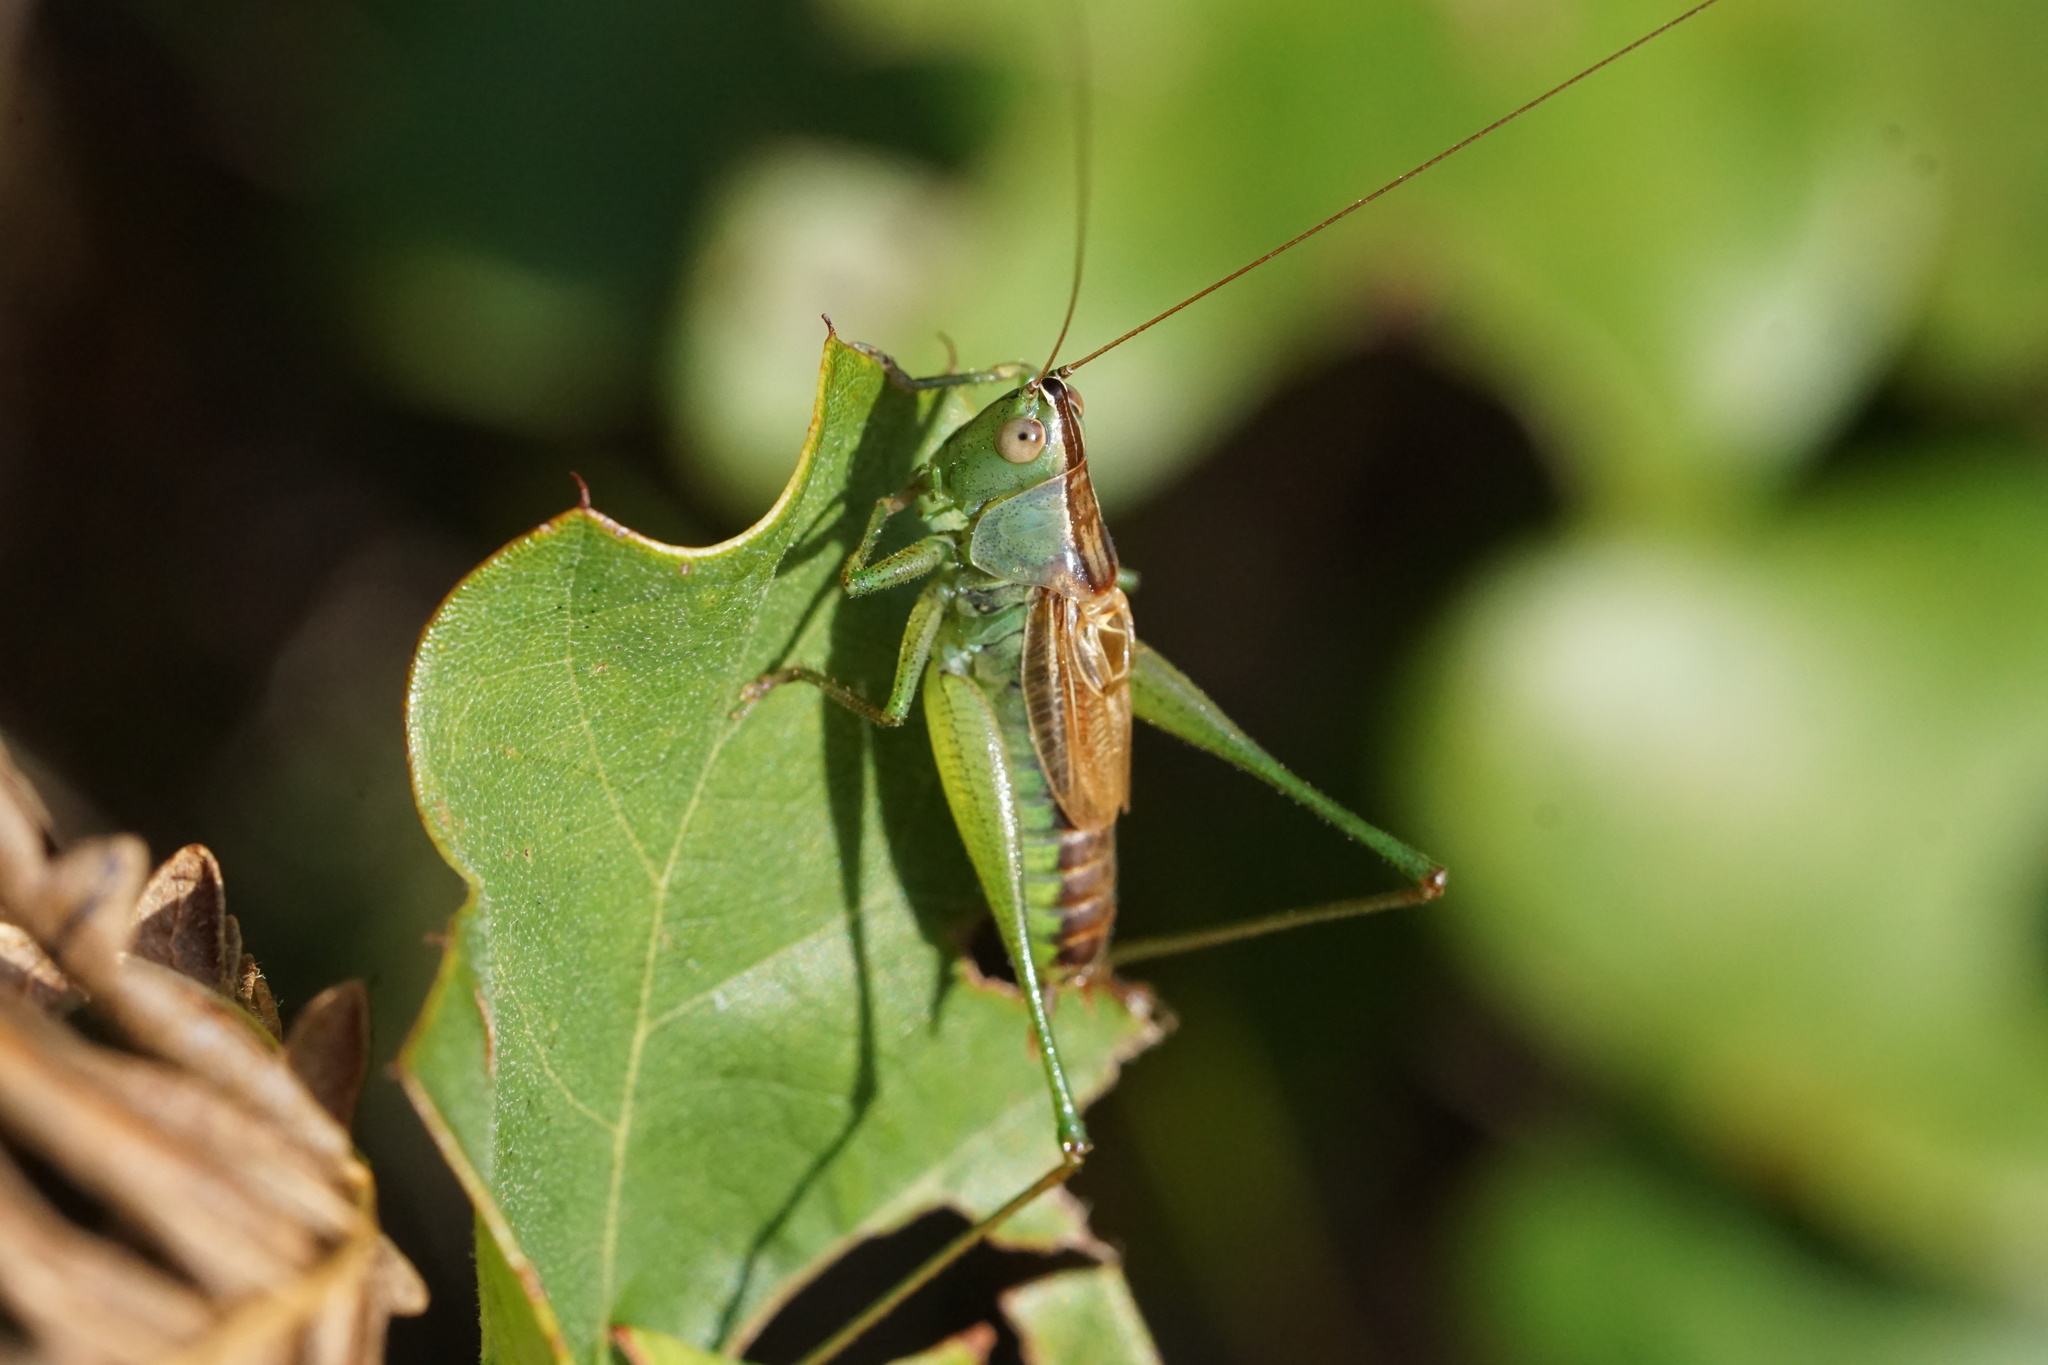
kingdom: Animalia
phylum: Arthropoda
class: Insecta
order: Orthoptera
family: Tettigoniidae
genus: Conocephalus
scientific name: Conocephalus strictus
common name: Straight-lanced katydid
